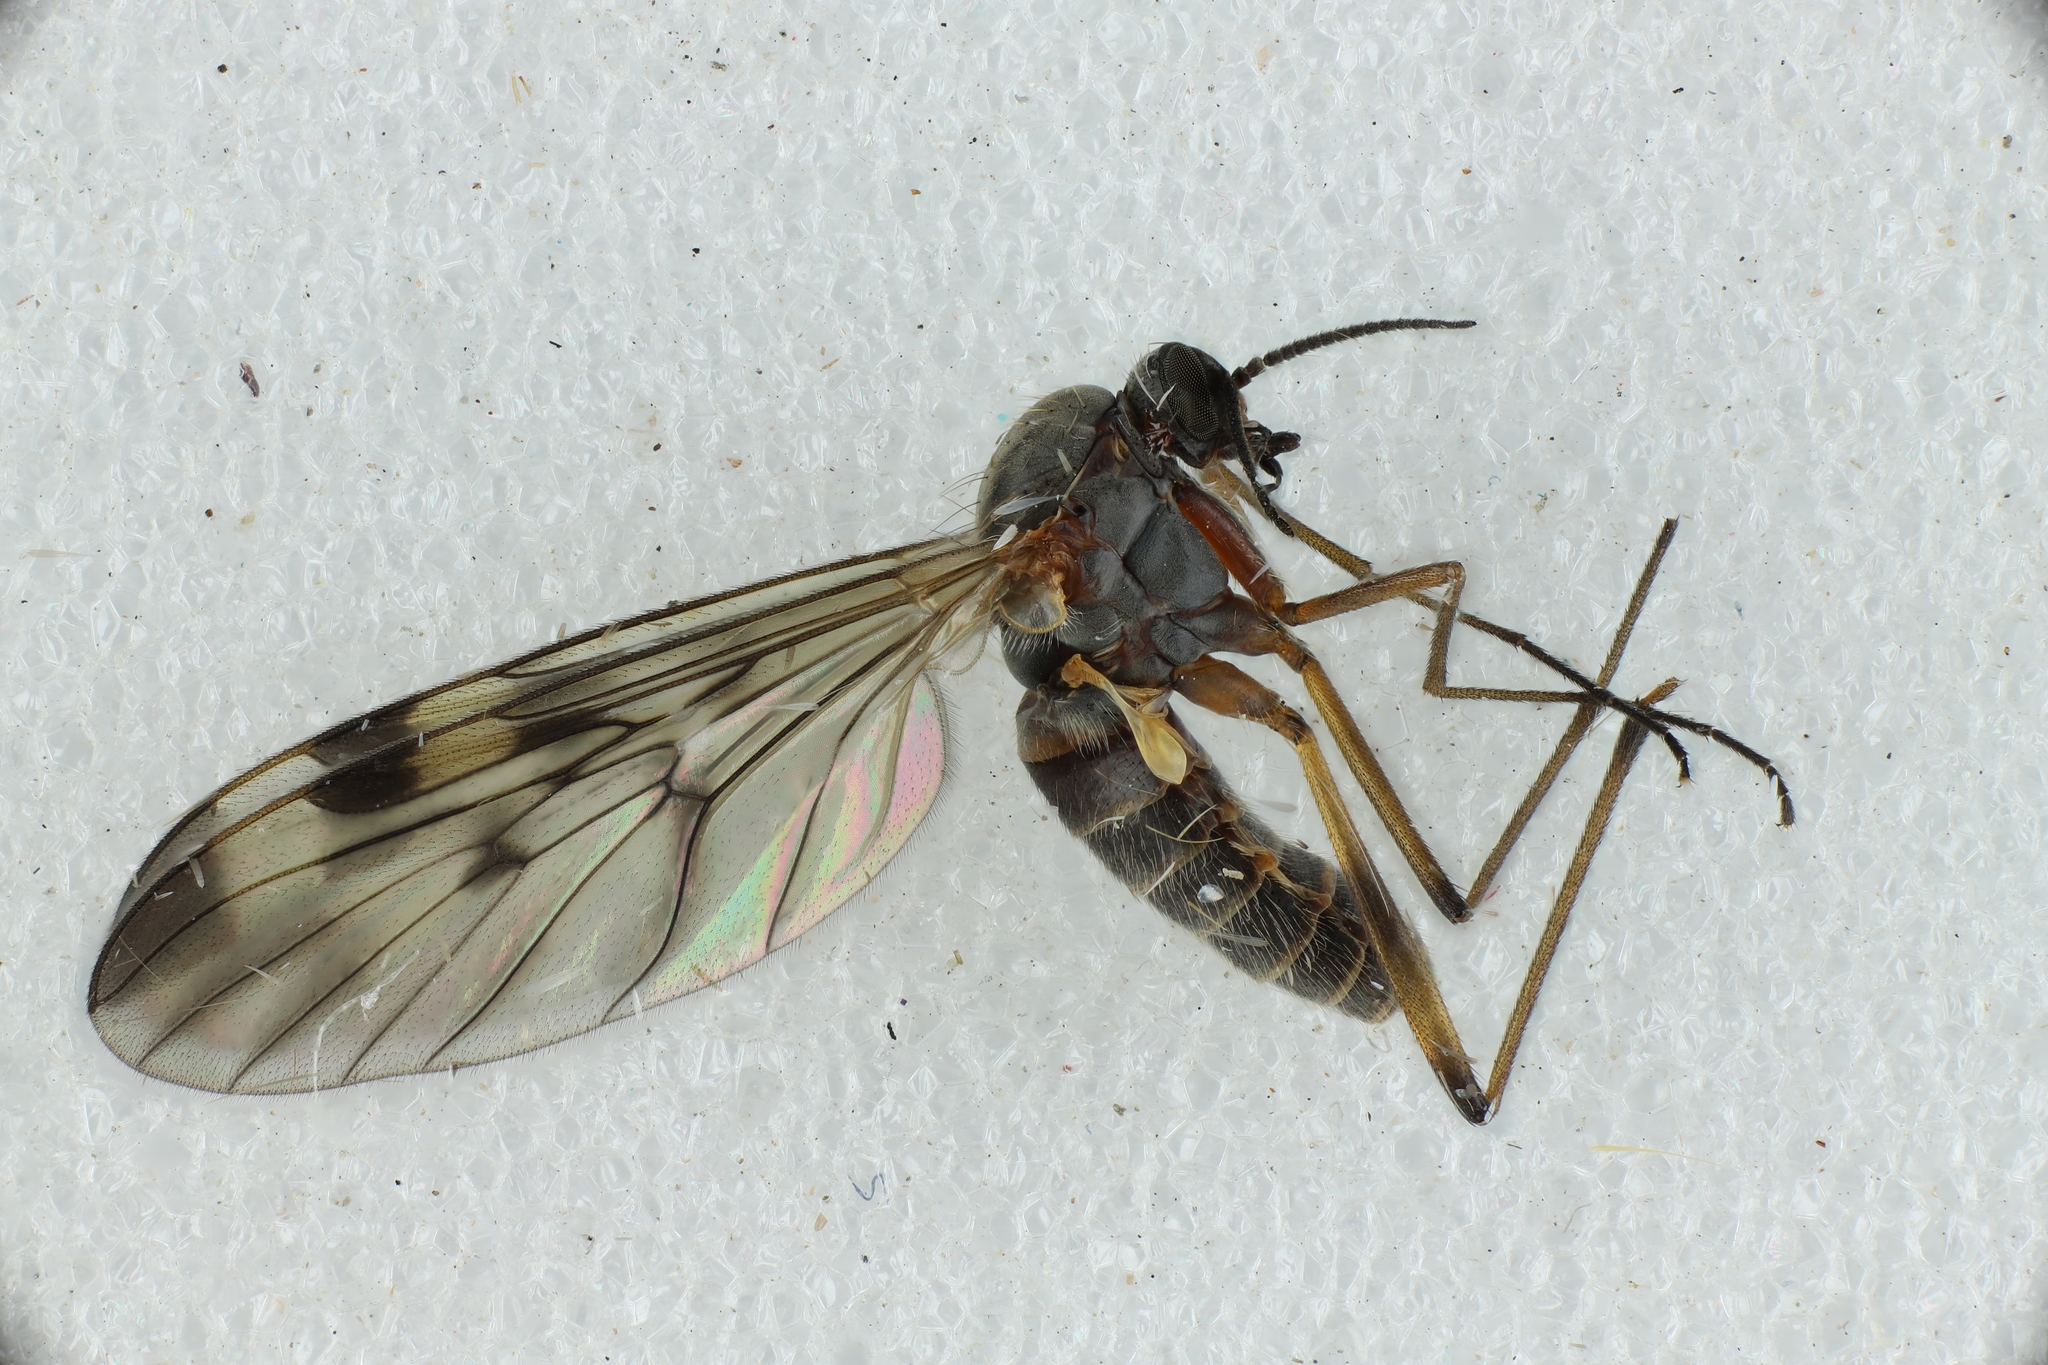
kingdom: Animalia
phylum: Arthropoda
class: Insecta
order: Diptera
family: Anisopodidae
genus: Sylvicola
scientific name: Sylvicola fenestralis
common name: Window gnat
